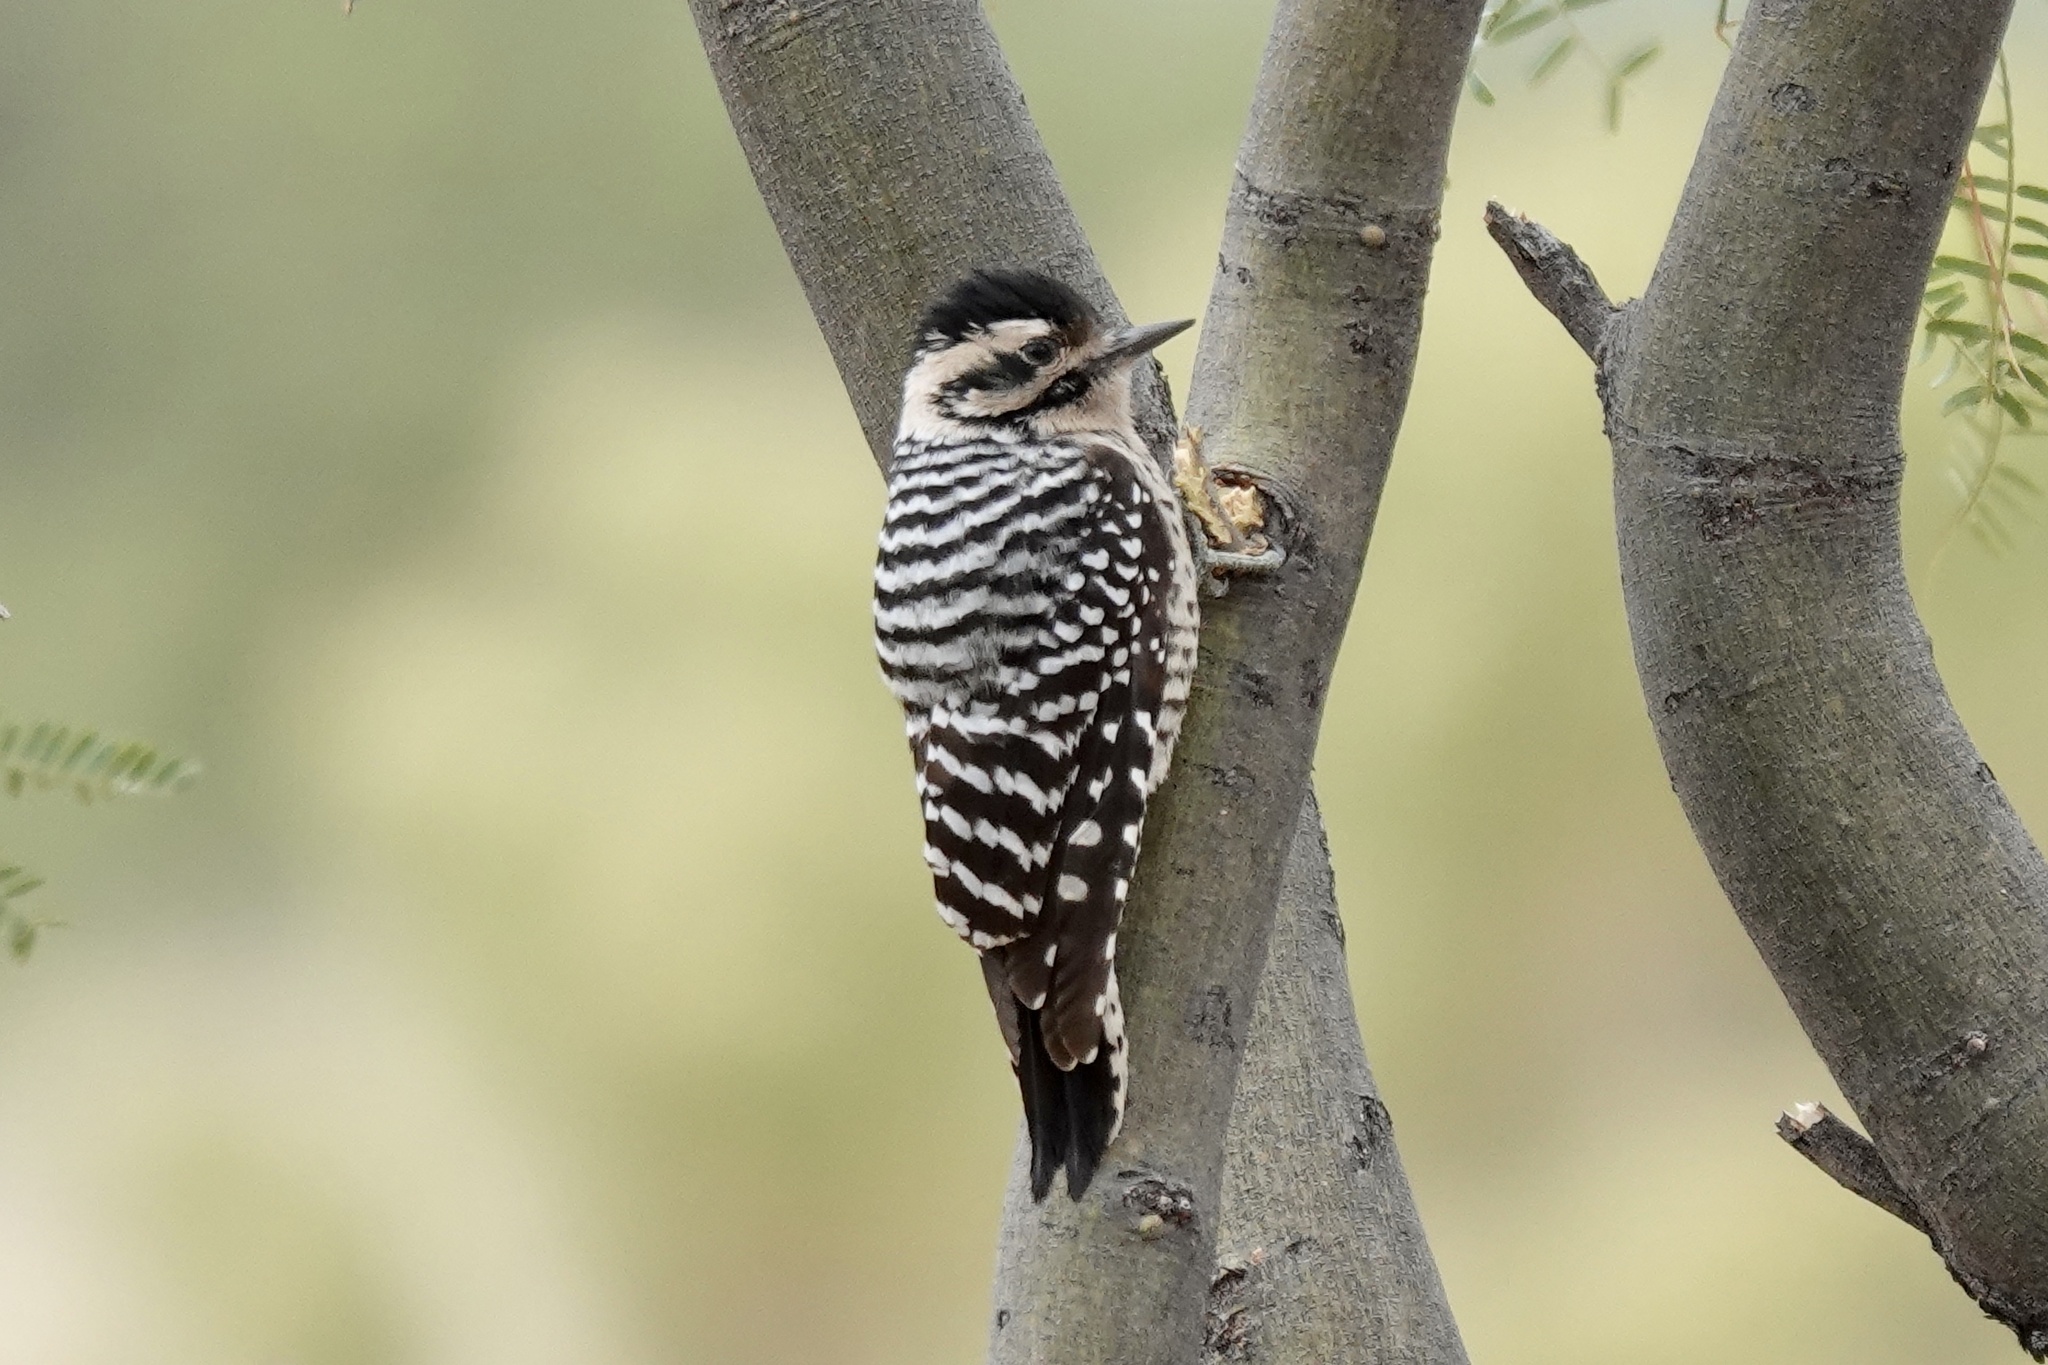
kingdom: Animalia
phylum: Chordata
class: Aves
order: Piciformes
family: Picidae
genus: Dryobates
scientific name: Dryobates scalaris
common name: Ladder-backed woodpecker
